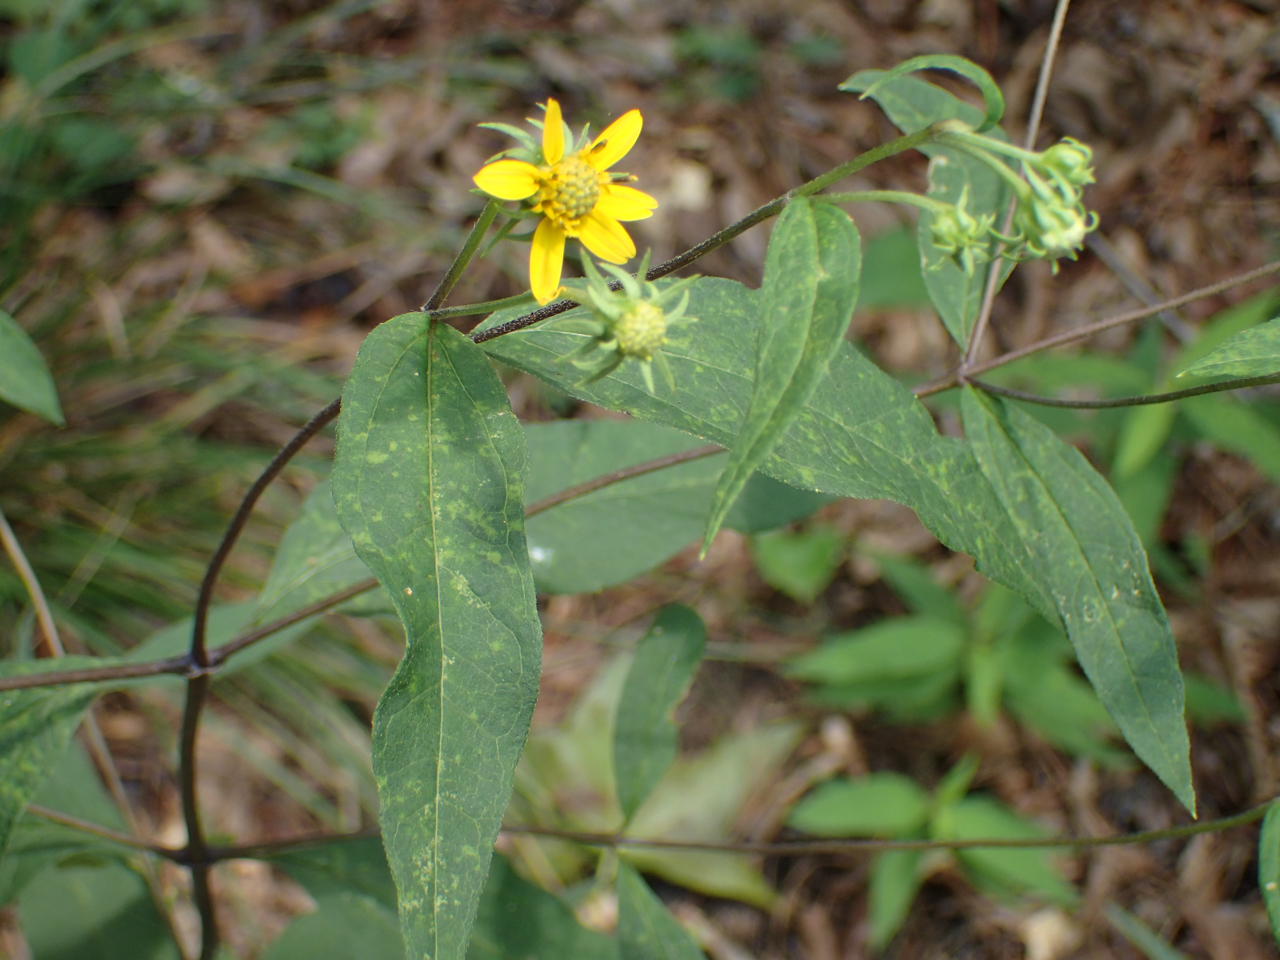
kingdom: Plantae
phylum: Tracheophyta
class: Magnoliopsida
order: Asterales
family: Asteraceae
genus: Helianthus
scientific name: Helianthus microcephalus
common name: Woodland sunflower
